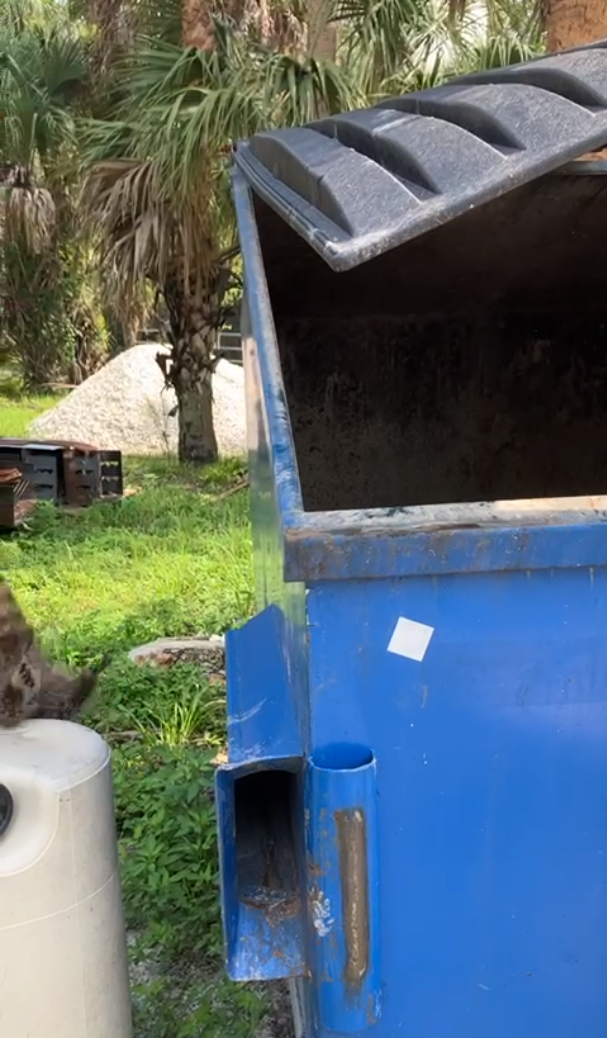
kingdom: Animalia
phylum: Chordata
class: Mammalia
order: Carnivora
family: Procyonidae
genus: Procyon
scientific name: Procyon lotor
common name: Raccoon
